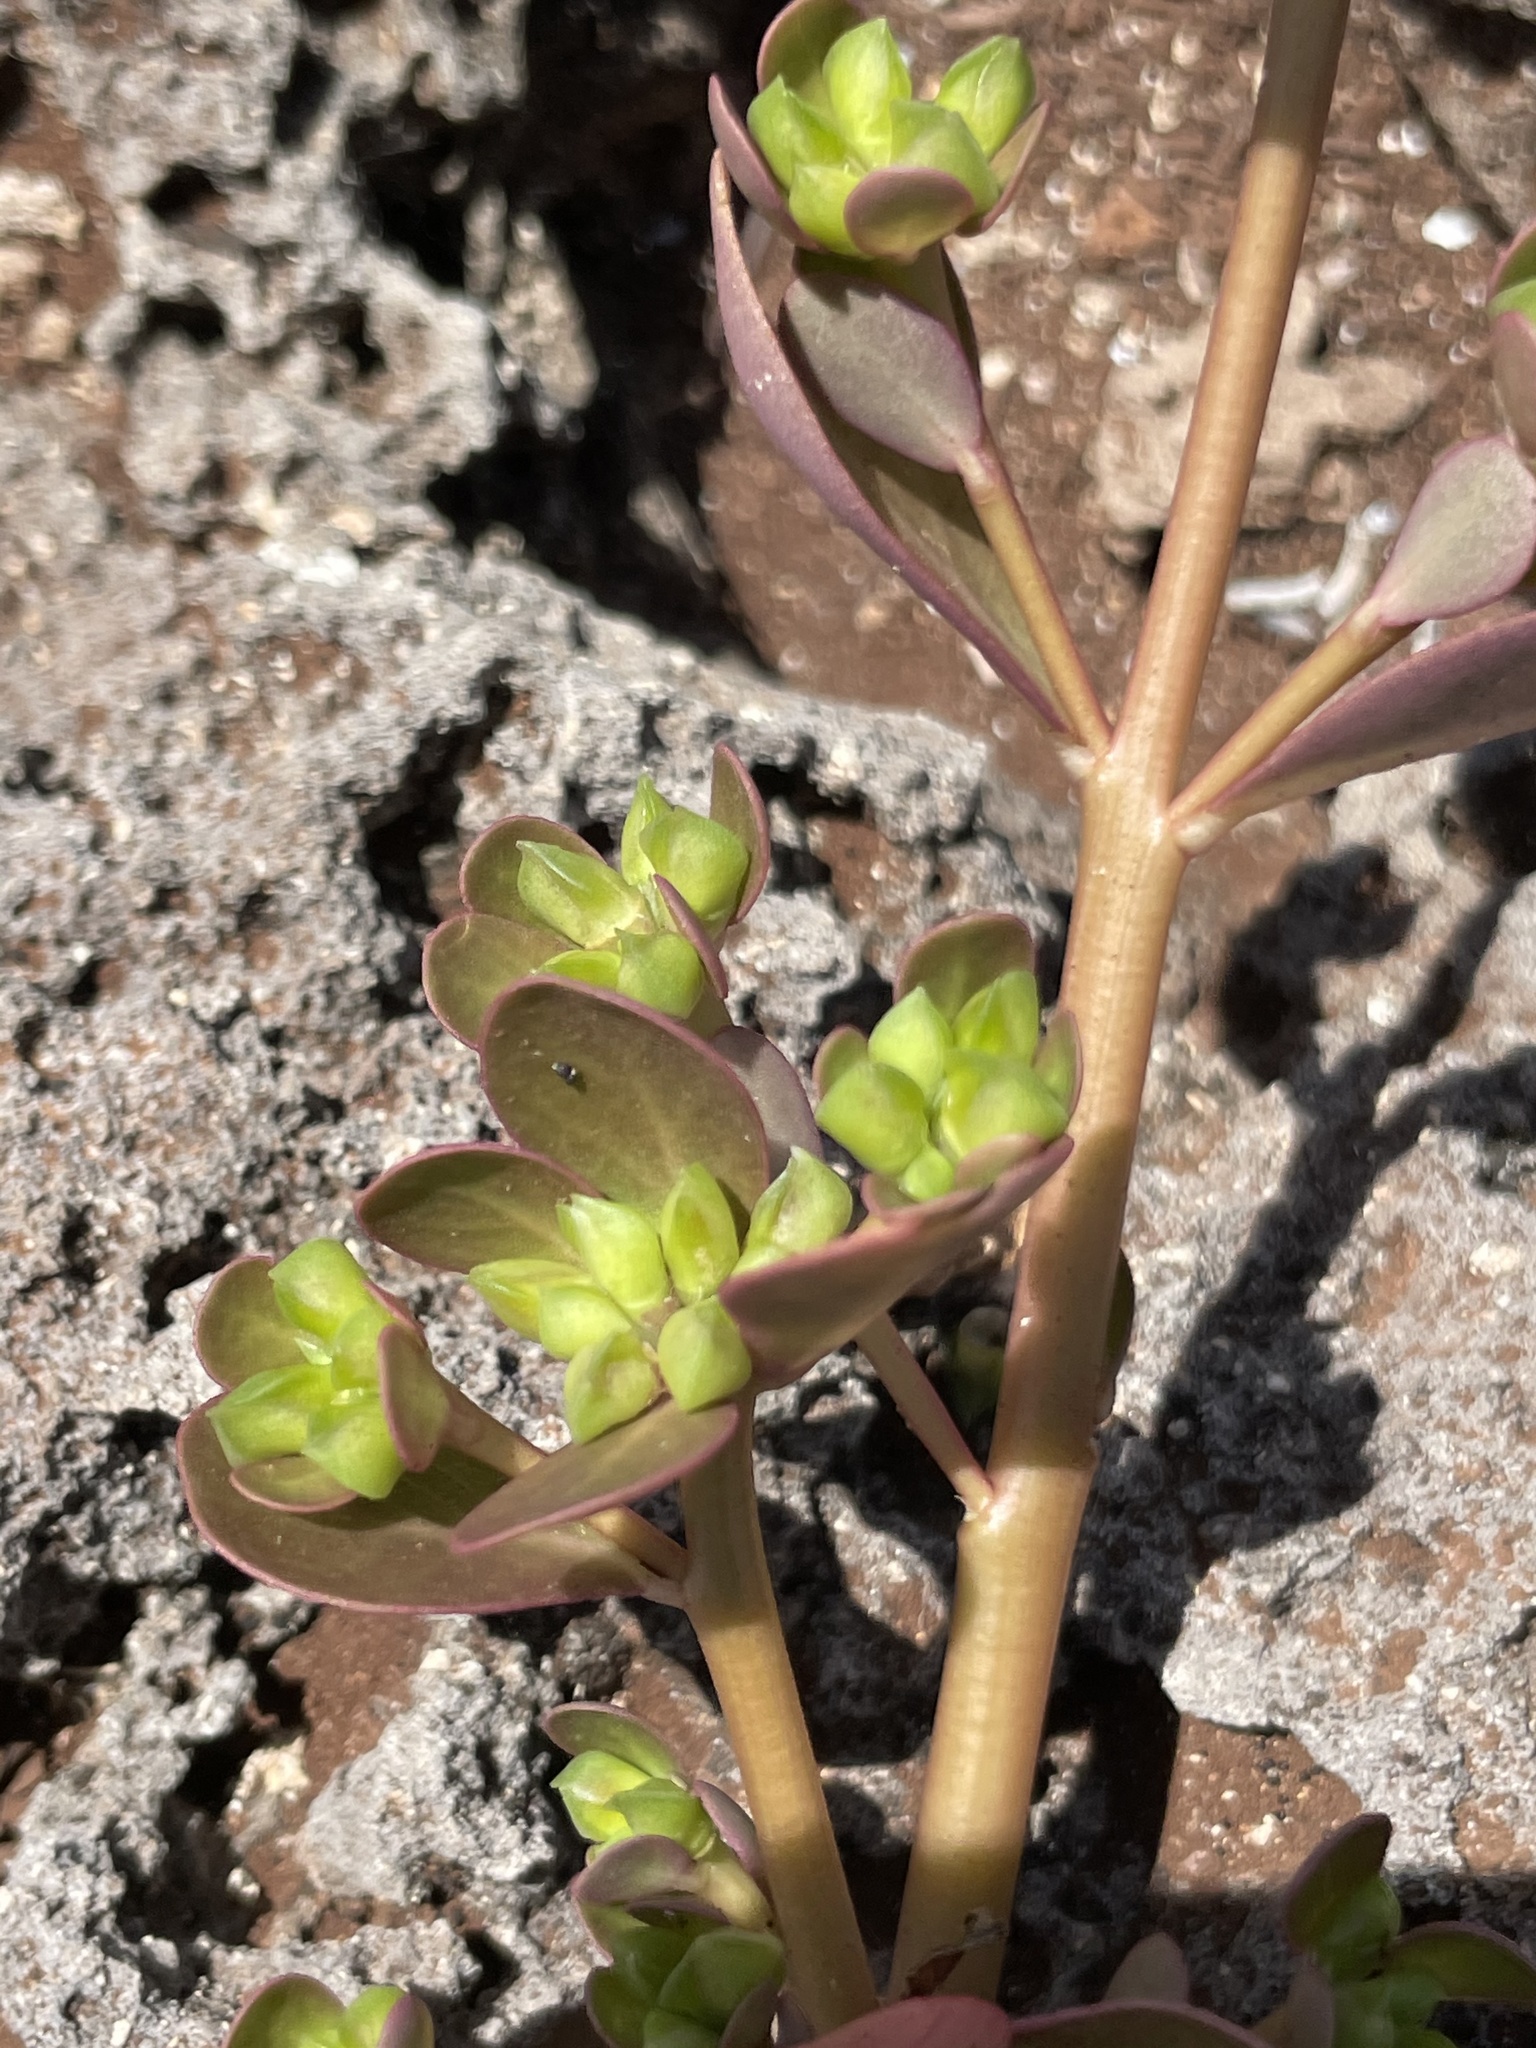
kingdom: Plantae
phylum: Tracheophyta
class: Magnoliopsida
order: Caryophyllales
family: Portulacaceae
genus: Portulaca
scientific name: Portulaca oleracea
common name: Common purslane
